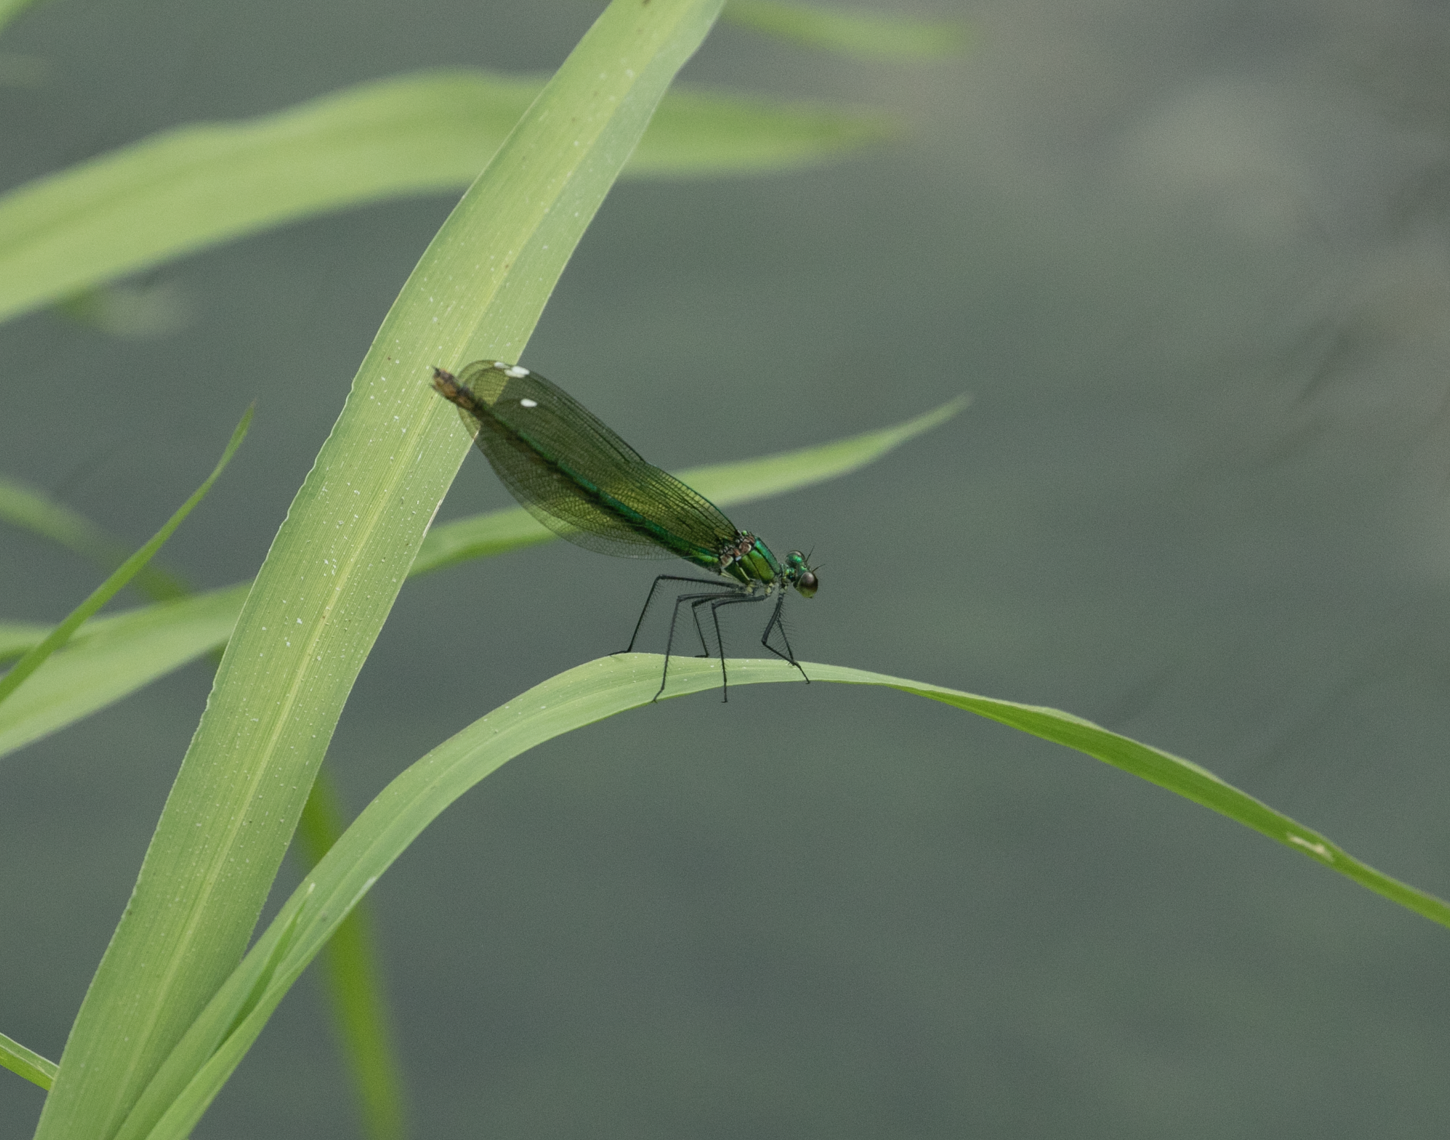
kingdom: Animalia
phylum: Arthropoda
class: Insecta
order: Odonata
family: Calopterygidae
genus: Calopteryx
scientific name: Calopteryx splendens
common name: Banded demoiselle
